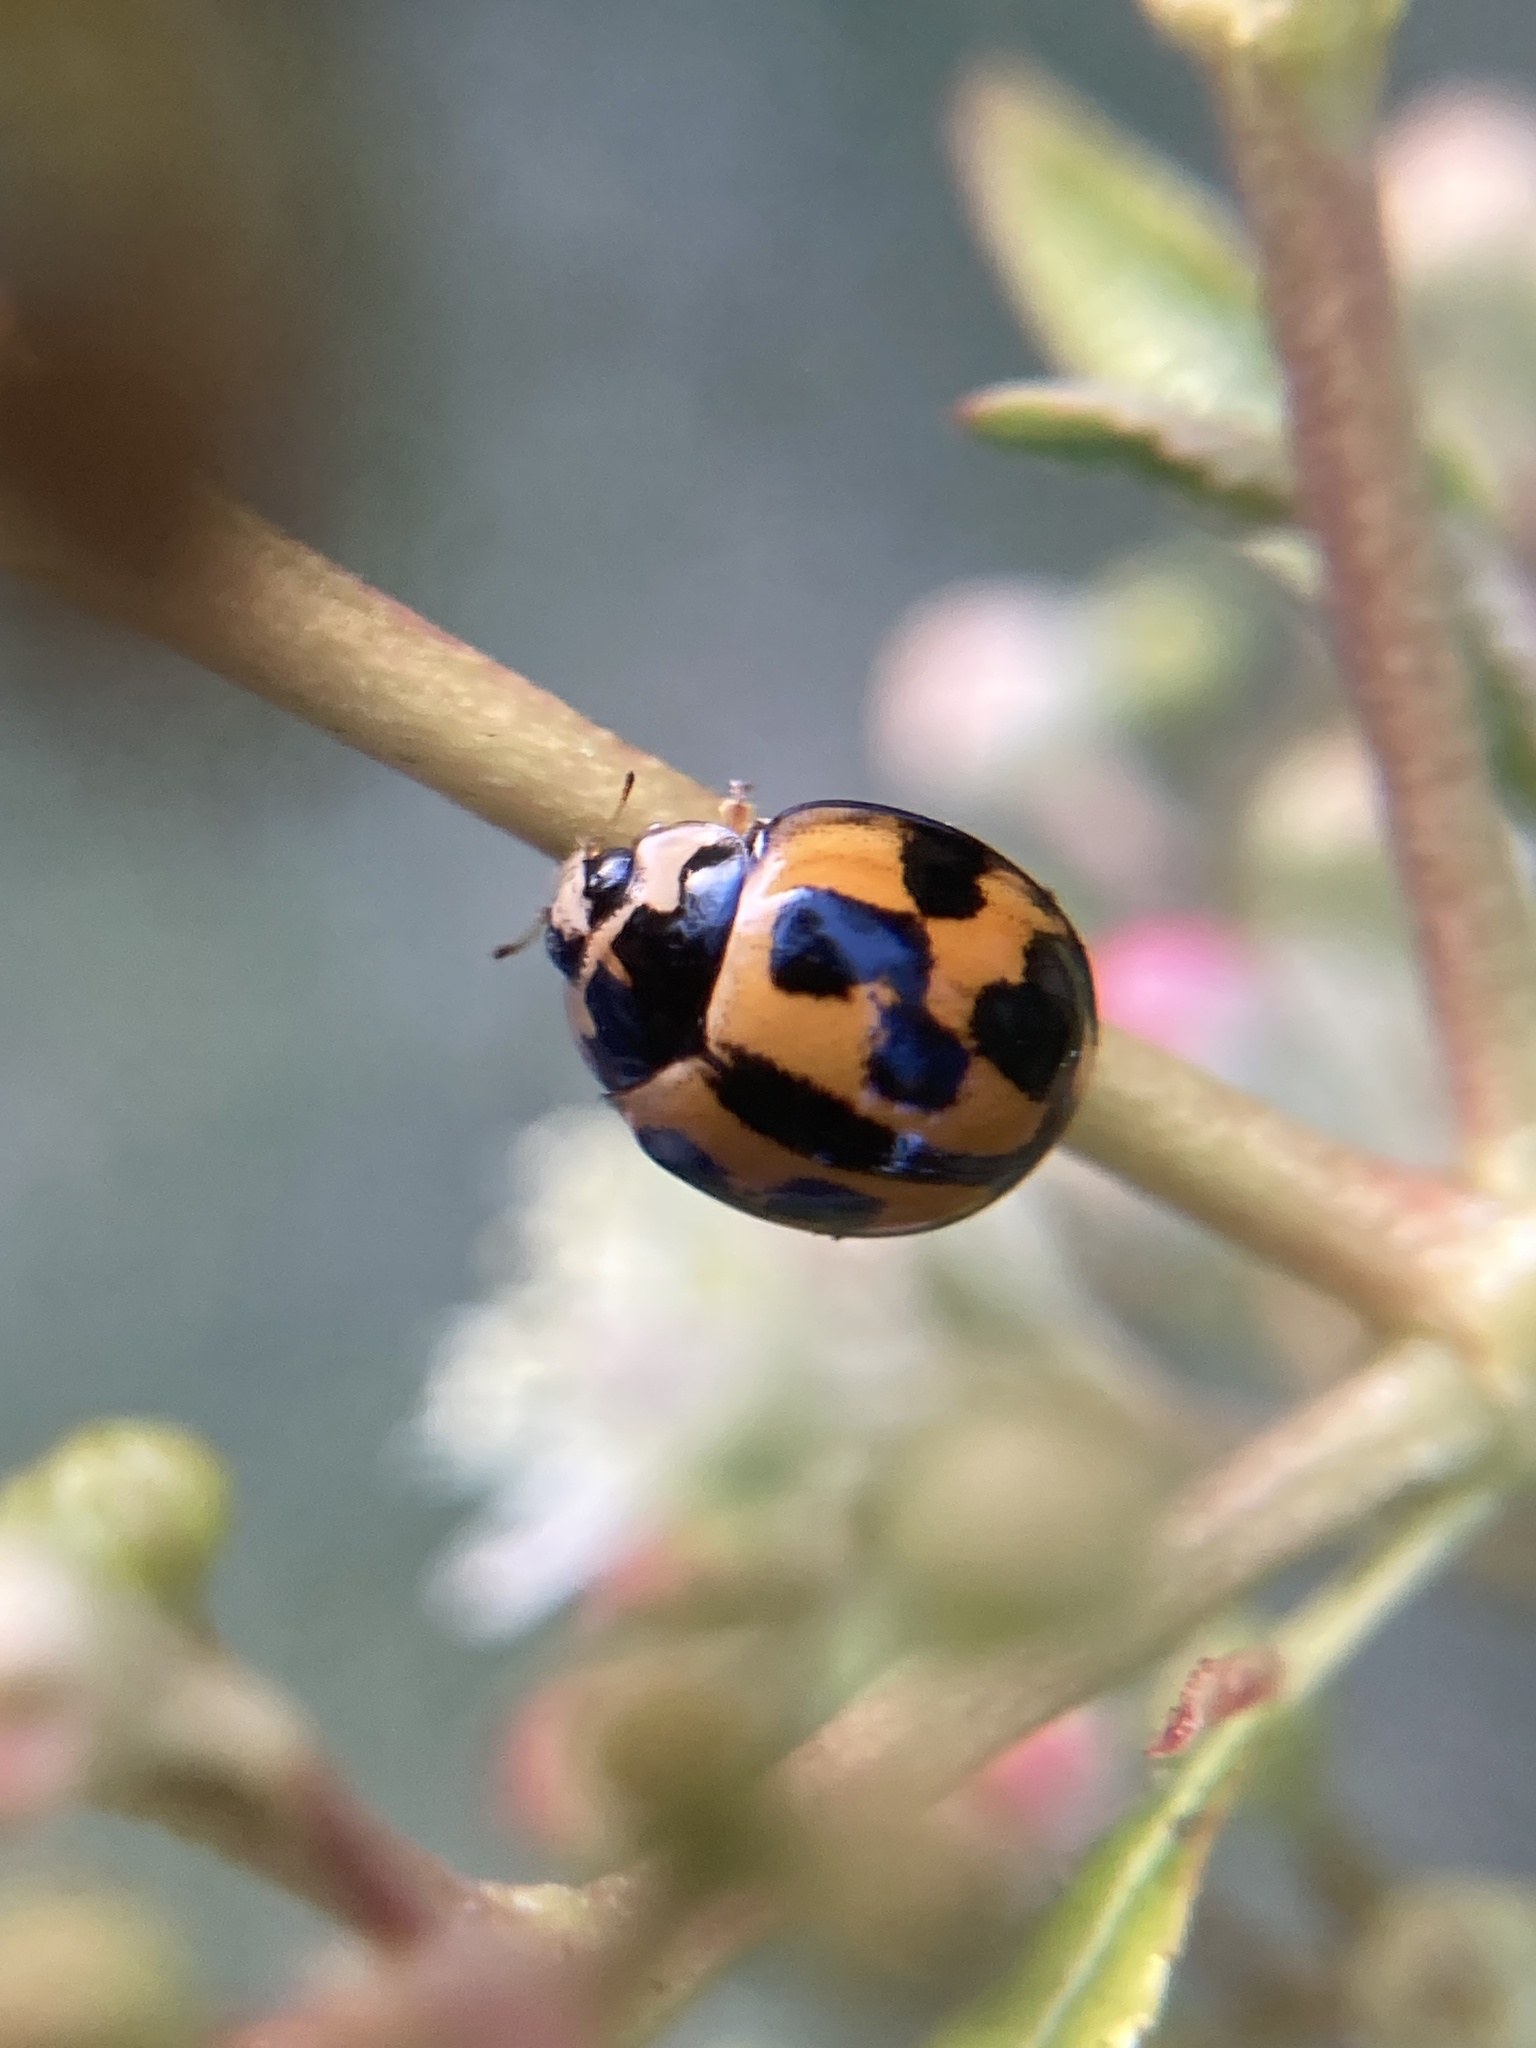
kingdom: Animalia
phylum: Arthropoda
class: Insecta
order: Coleoptera
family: Coccinellidae
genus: Coelophora
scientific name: Coelophora inaequalis
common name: Common australian lady beetle
